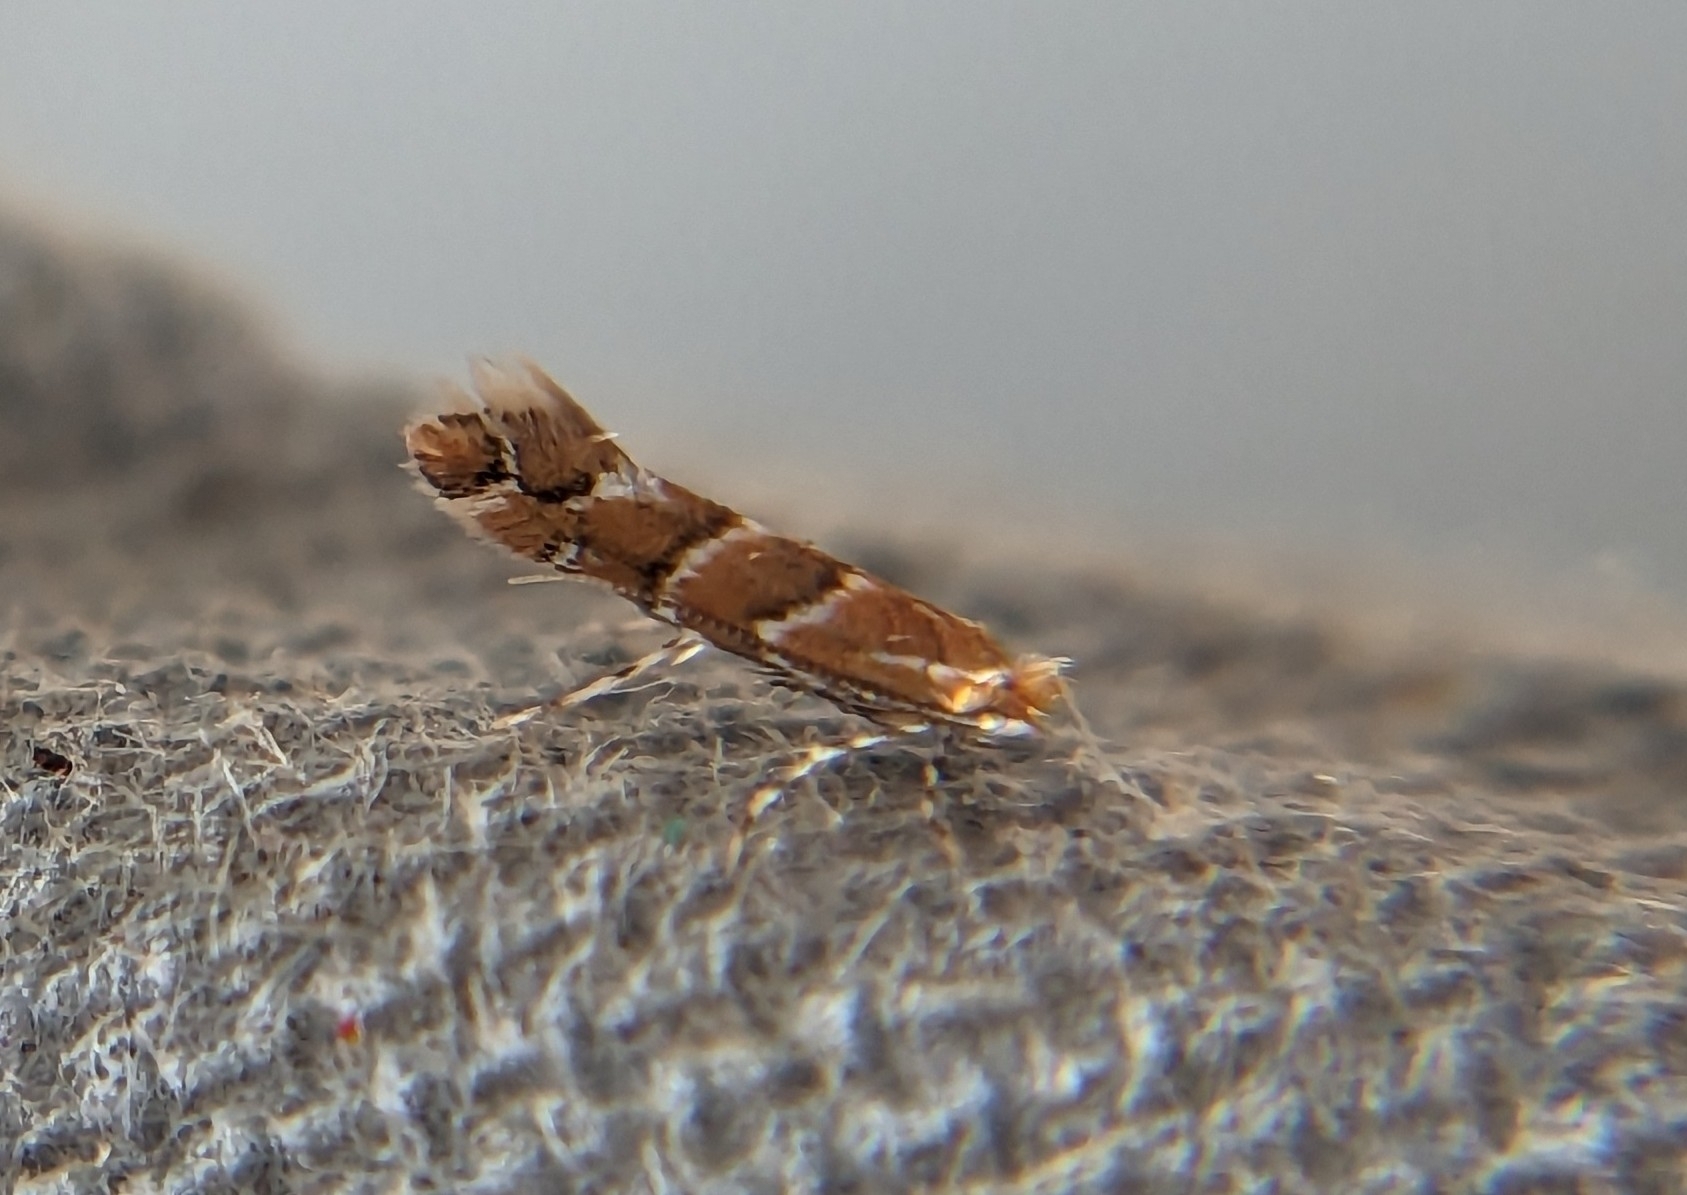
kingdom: Animalia
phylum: Arthropoda
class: Insecta
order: Lepidoptera
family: Gracillariidae
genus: Cameraria
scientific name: Cameraria ohridella
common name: Horse-chestnut leaf-miner
